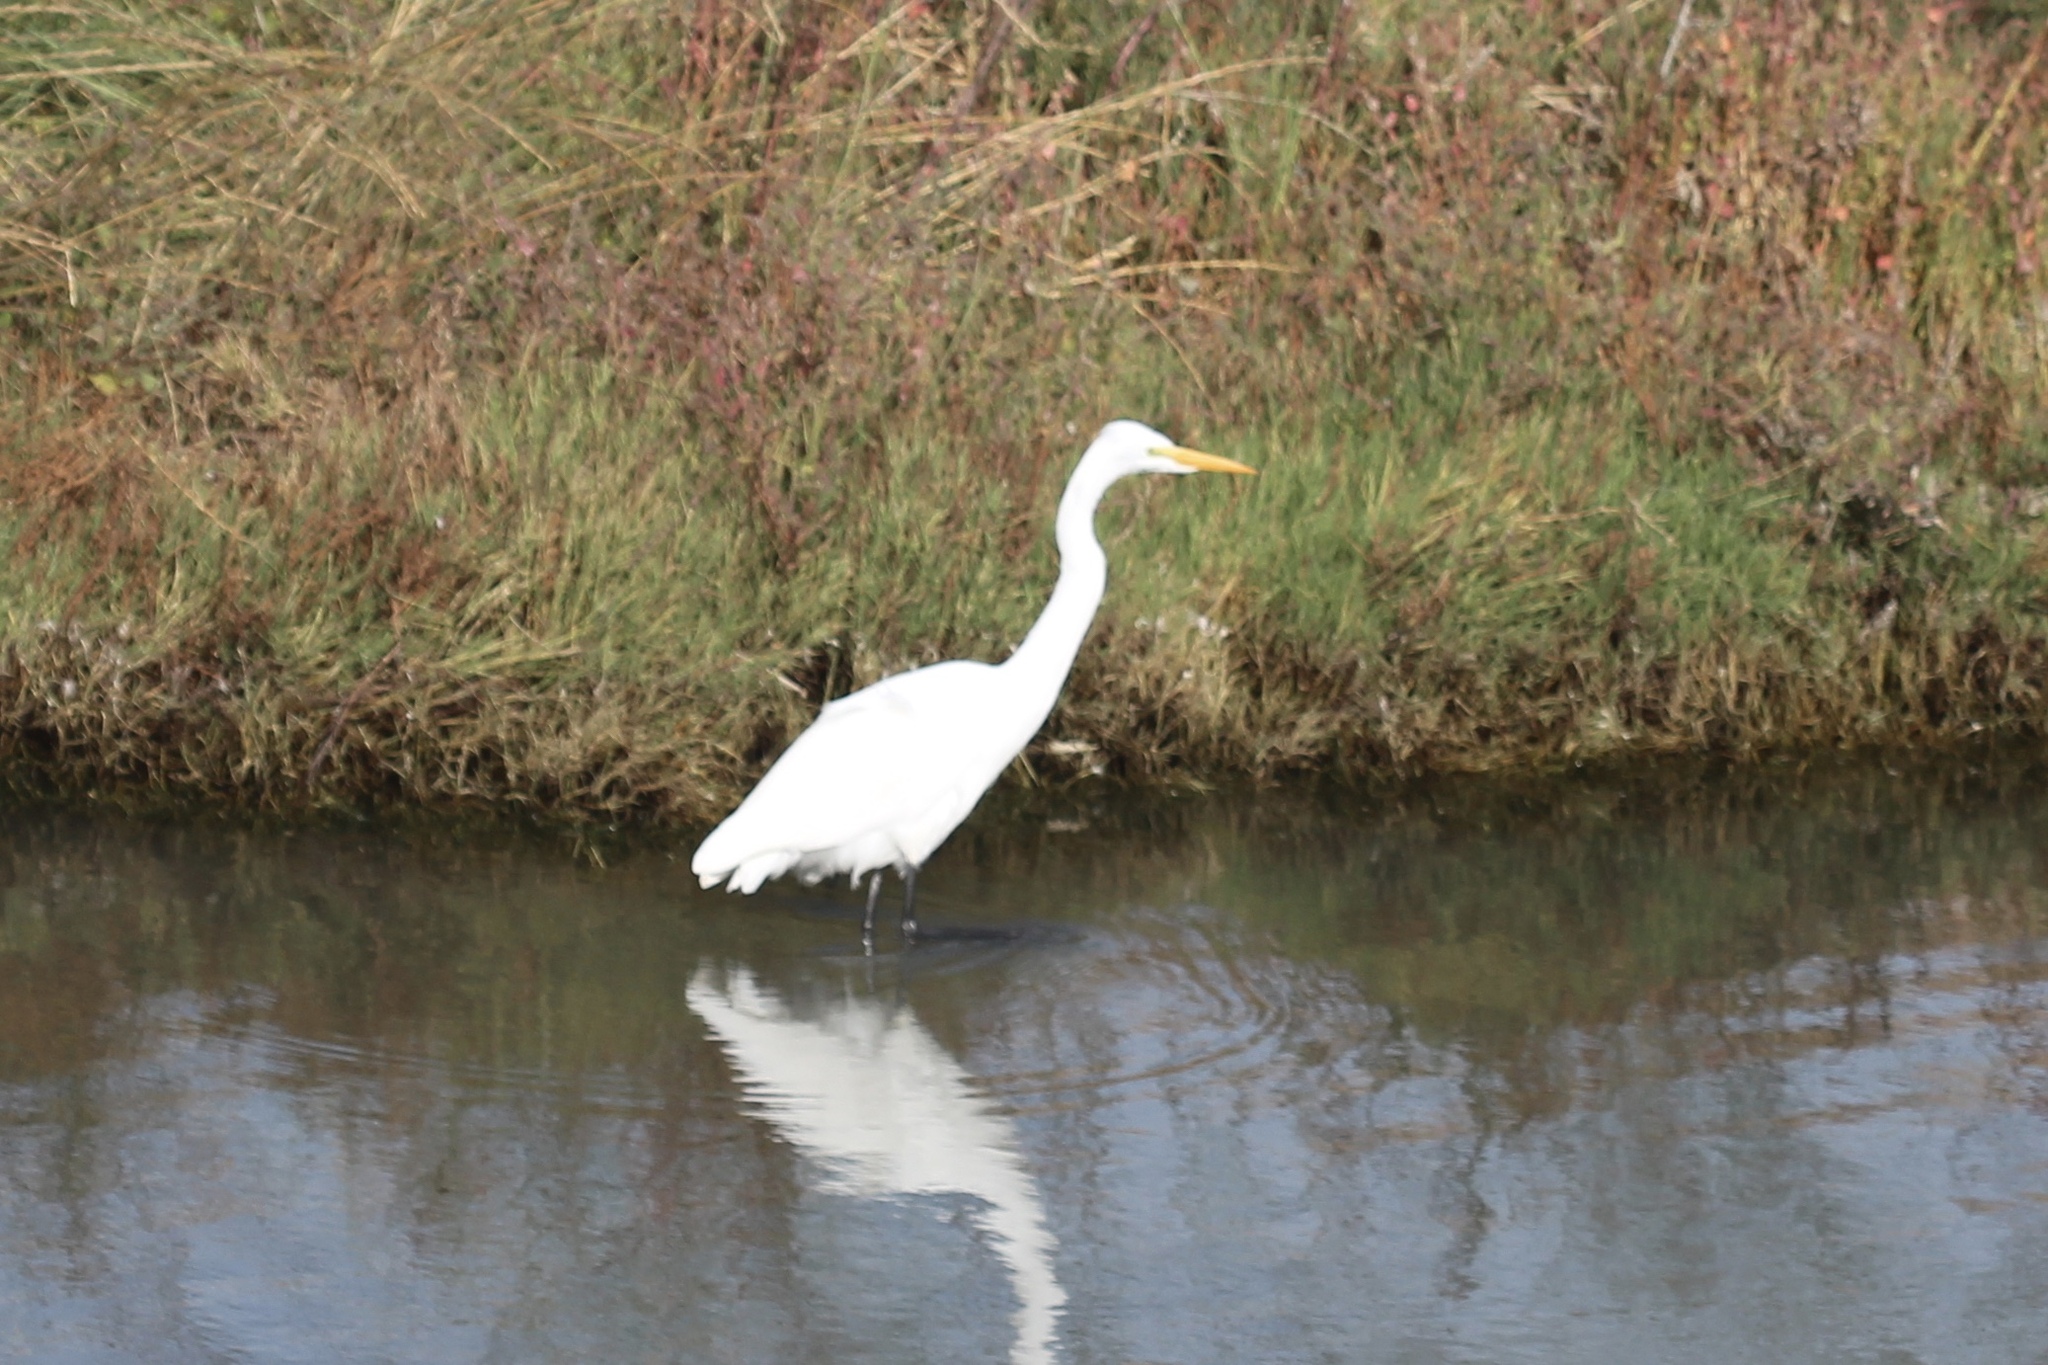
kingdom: Animalia
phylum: Chordata
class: Aves
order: Pelecaniformes
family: Ardeidae
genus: Ardea
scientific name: Ardea alba
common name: Great egret
